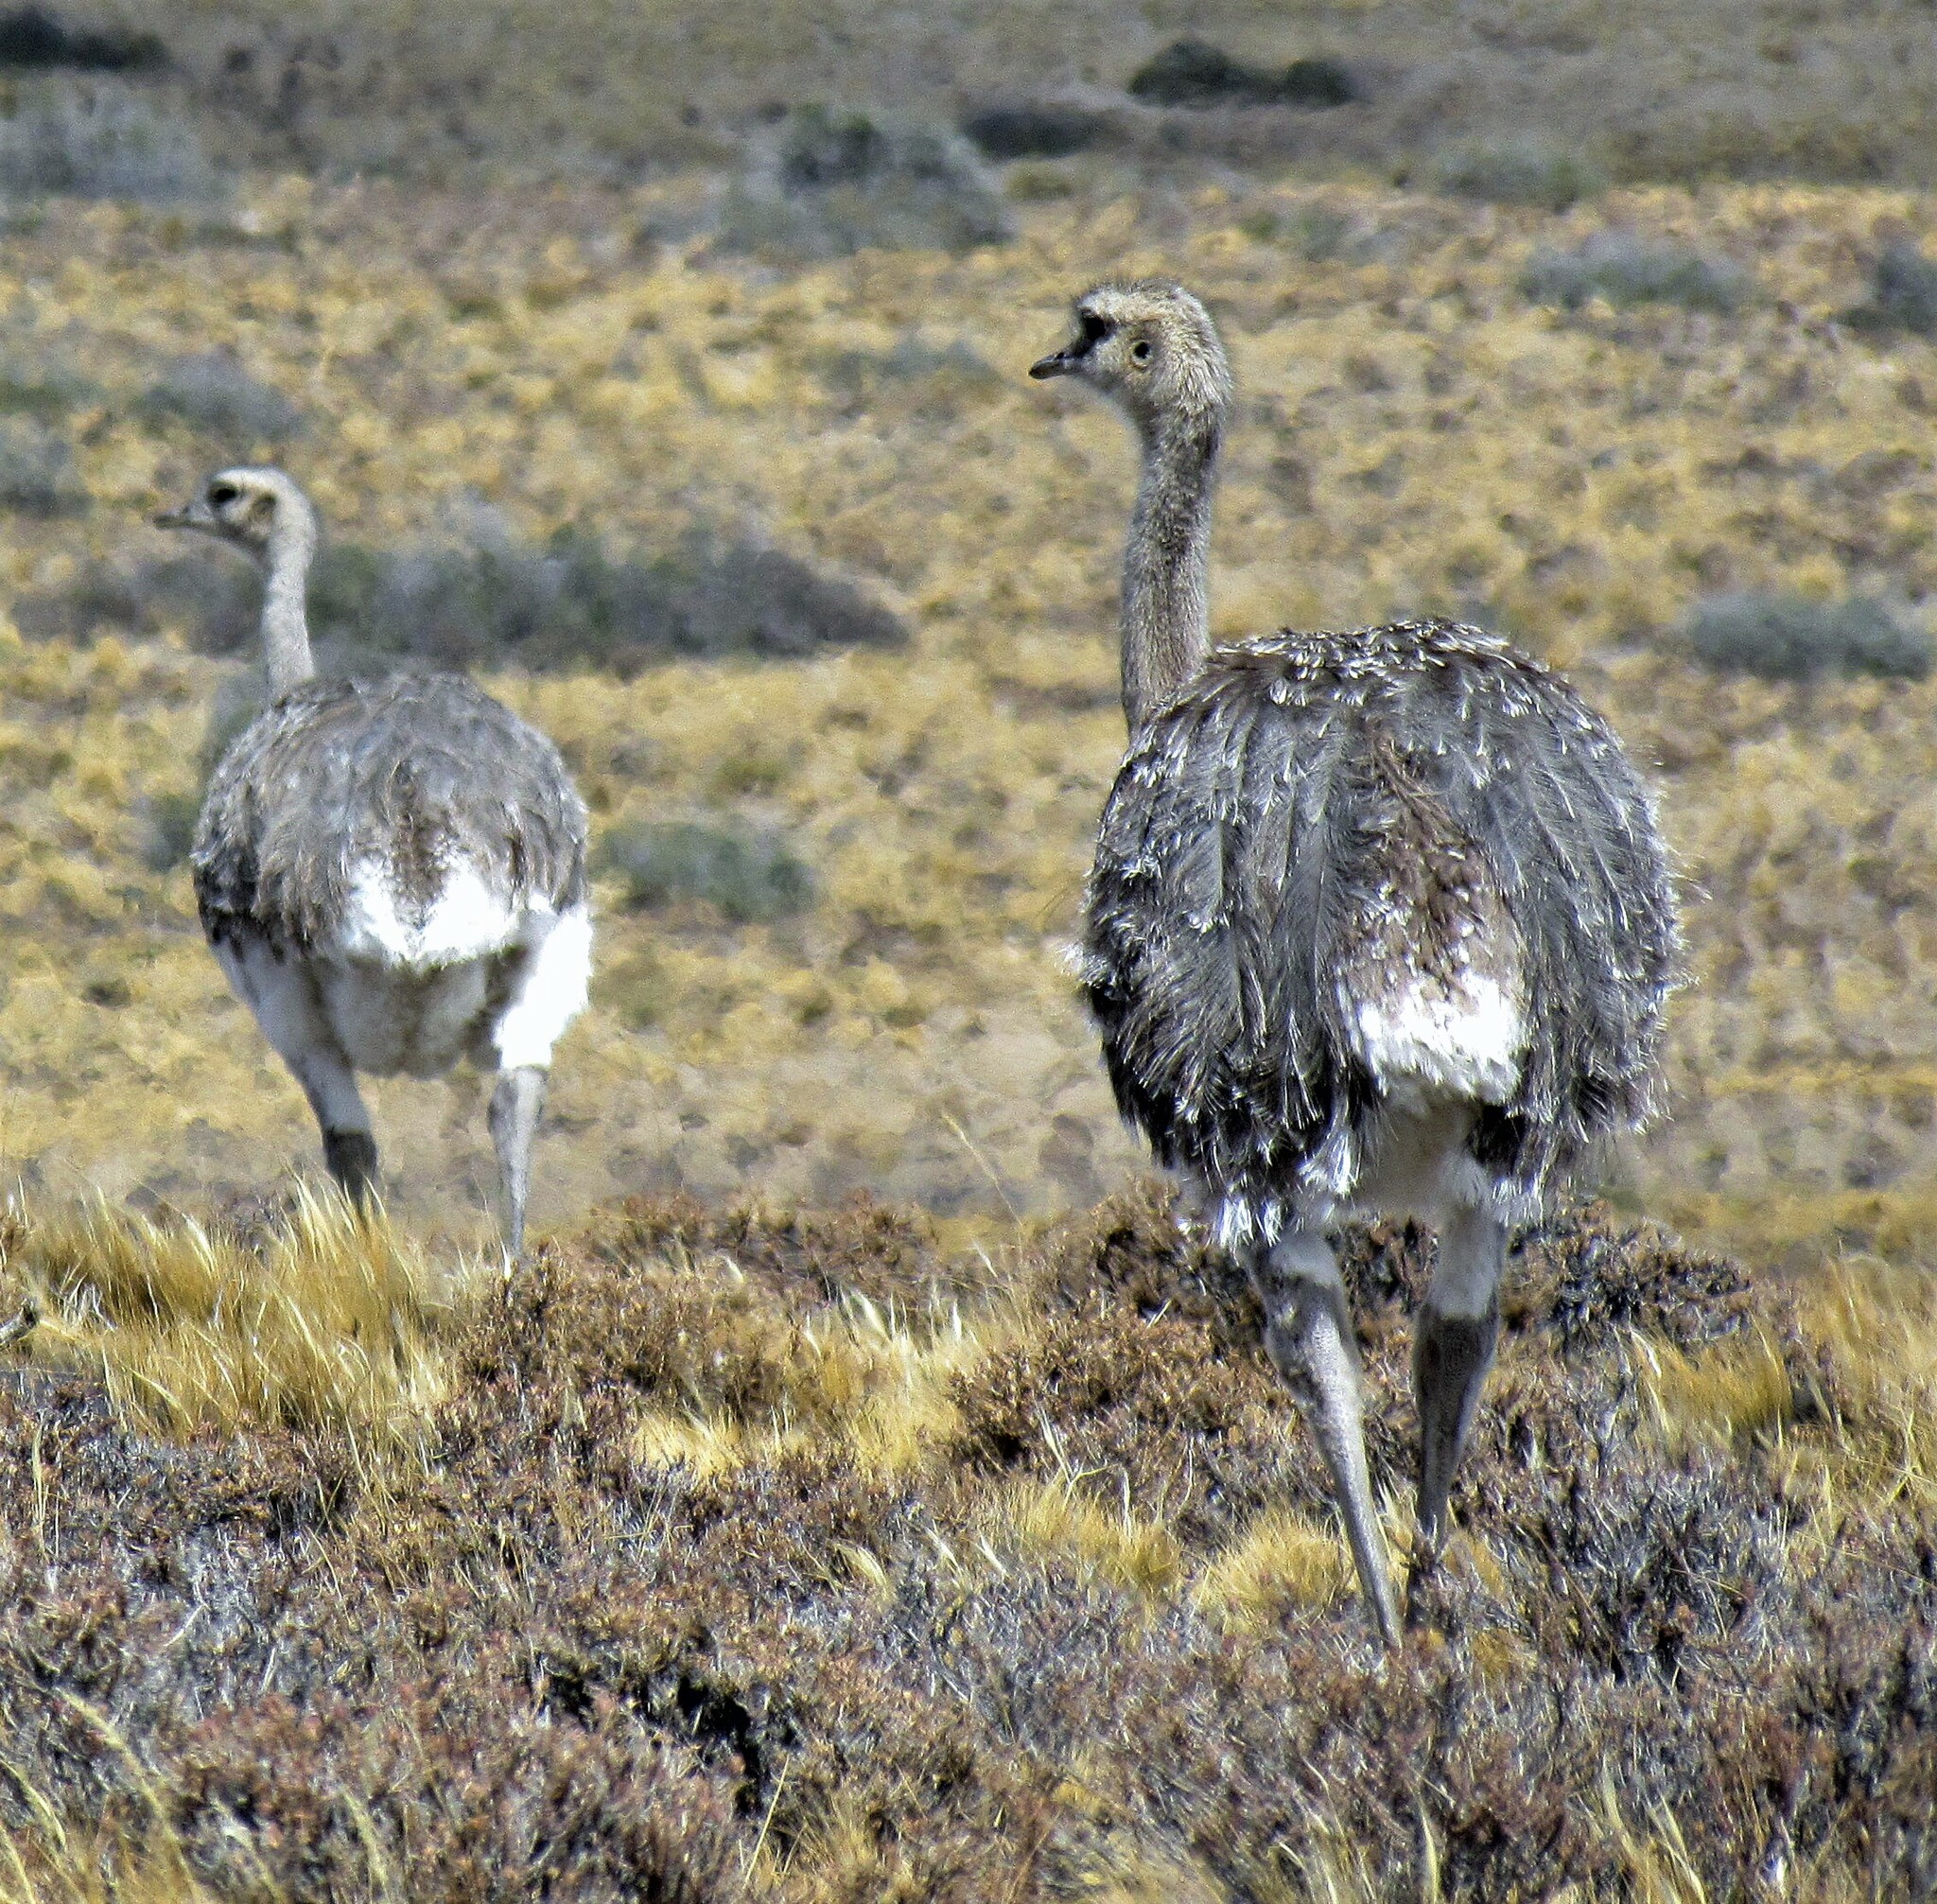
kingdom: Animalia
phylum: Chordata
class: Aves
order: Rheiformes
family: Rheidae
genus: Rhea
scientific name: Rhea pennata
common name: Lesser rhea
